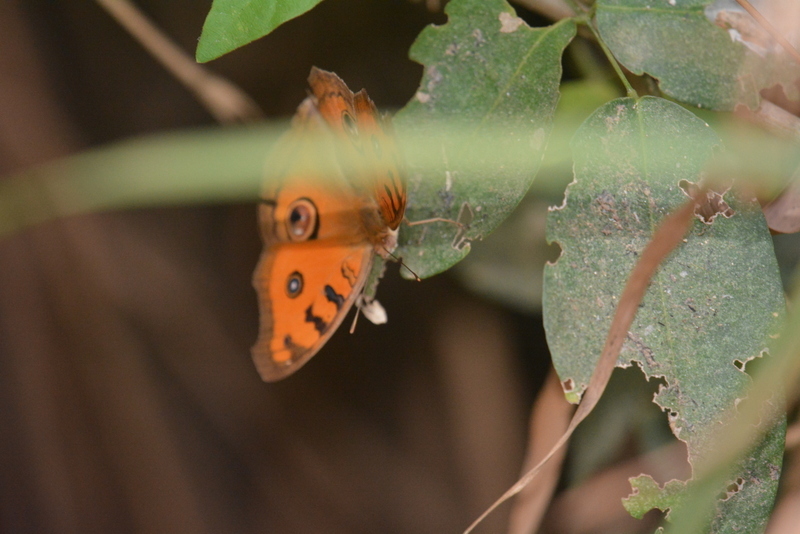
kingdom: Animalia
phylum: Arthropoda
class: Insecta
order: Lepidoptera
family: Nymphalidae
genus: Junonia
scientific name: Junonia almana
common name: Peacock pansy
